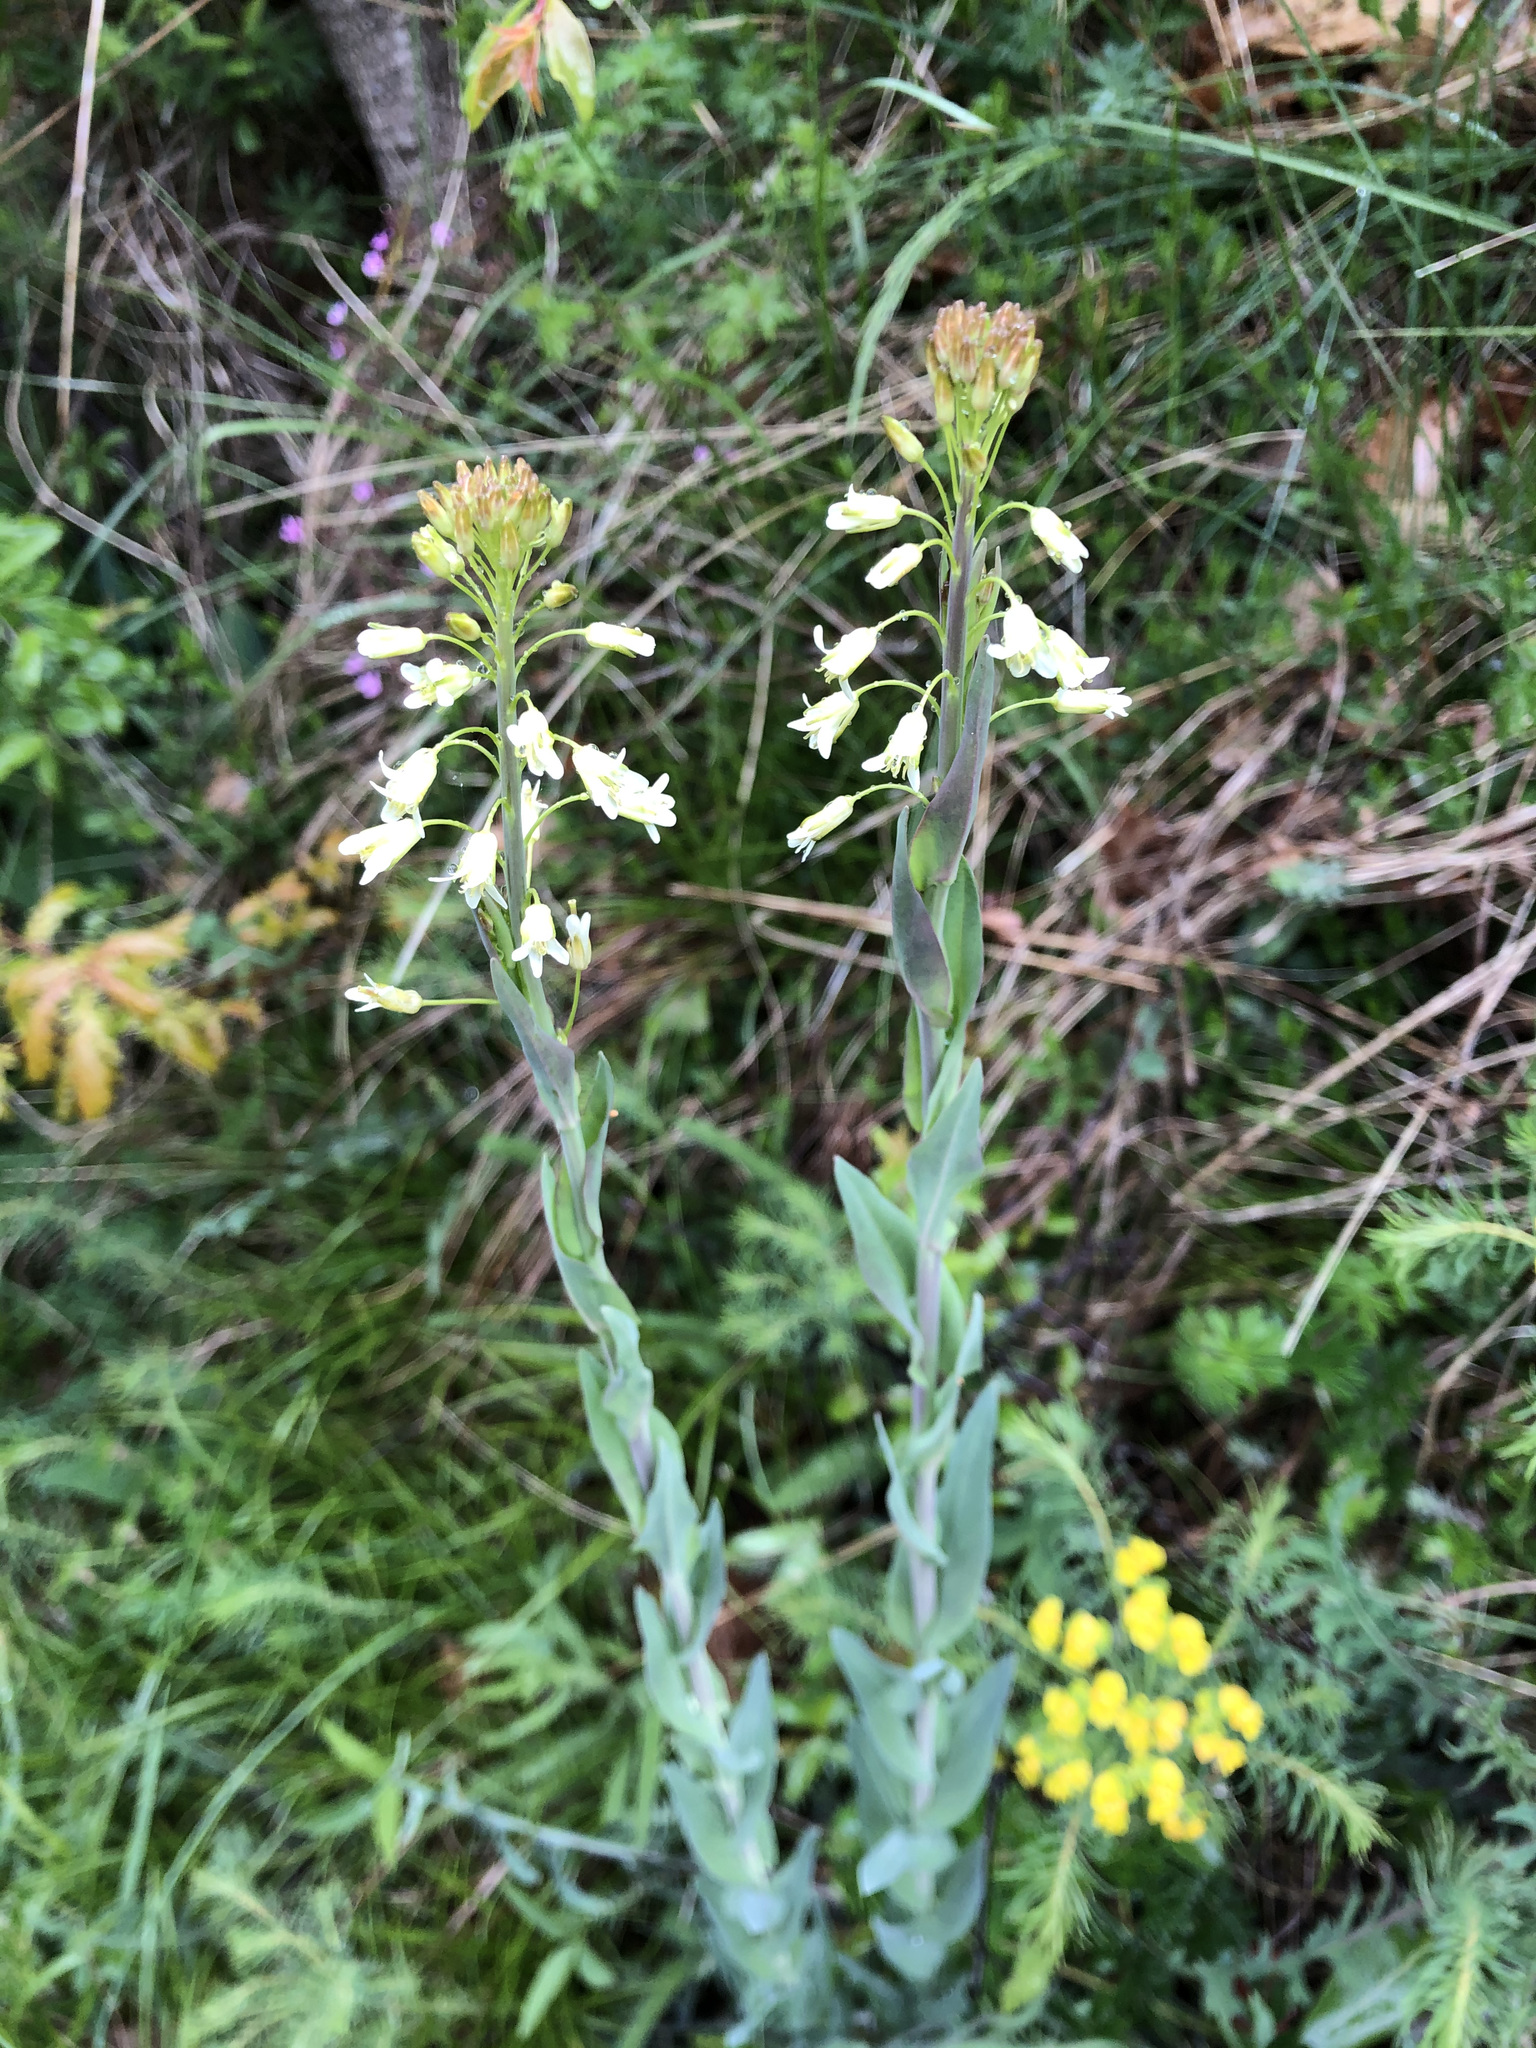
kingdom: Plantae
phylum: Tracheophyta
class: Magnoliopsida
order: Brassicales
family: Brassicaceae
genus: Turritis
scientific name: Turritis glabra
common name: Tower rockcress
